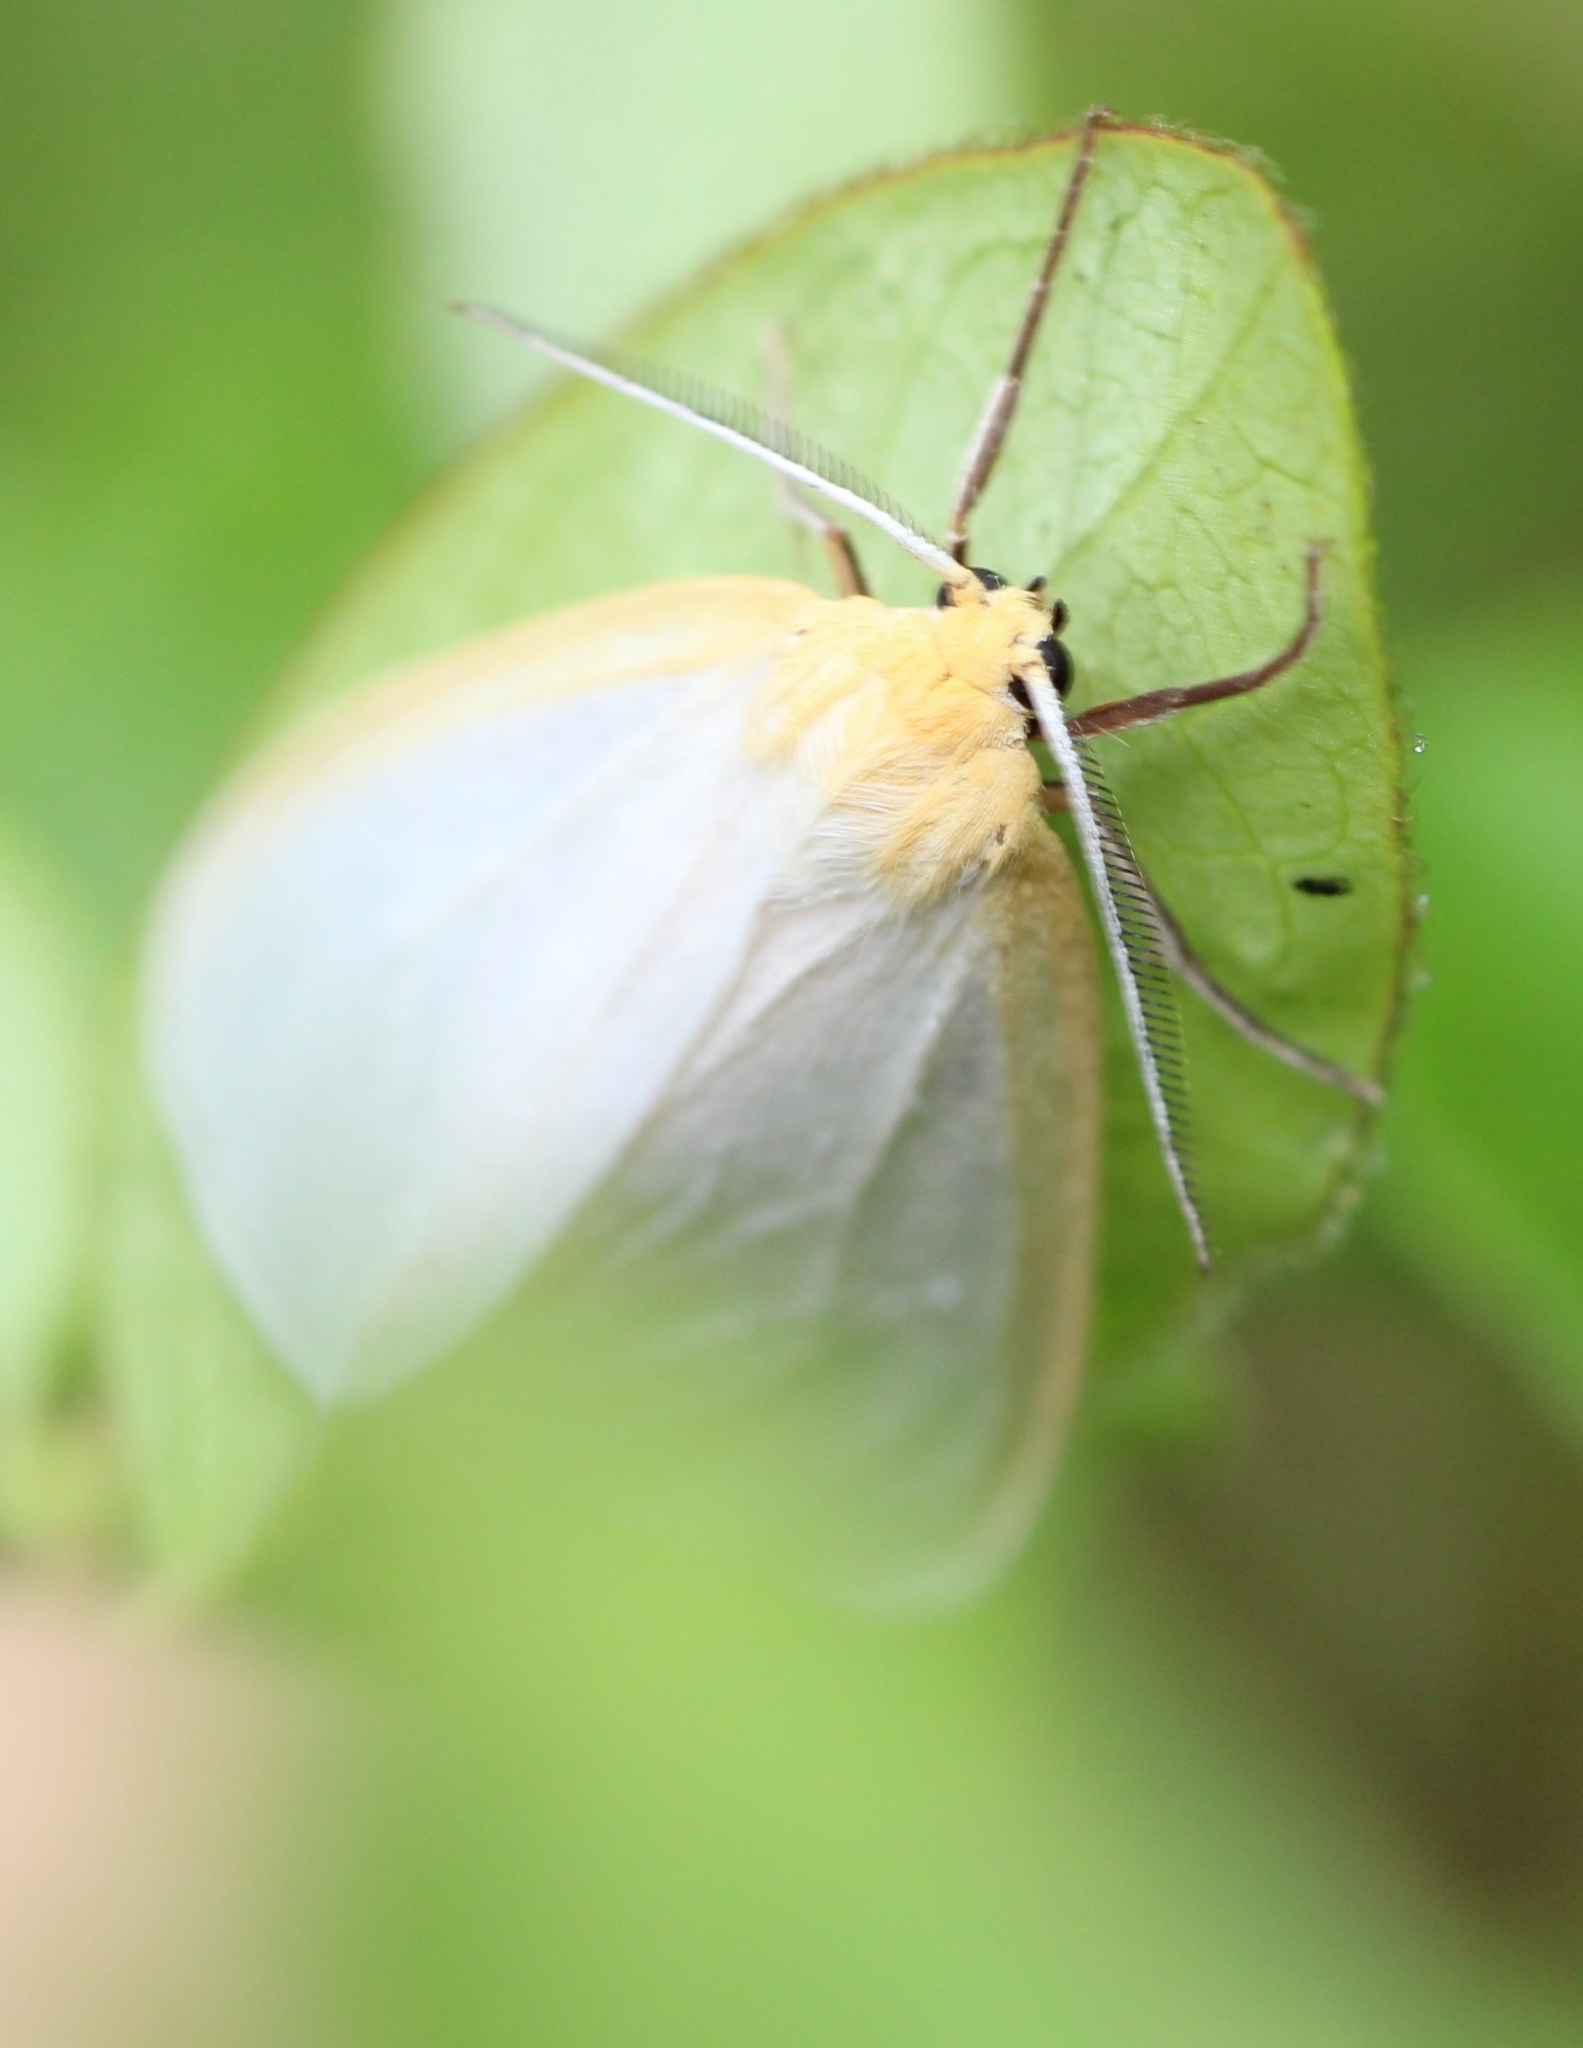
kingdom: Animalia
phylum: Arthropoda
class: Insecta
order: Lepidoptera
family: Erebidae
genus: Cycnia
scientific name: Cycnia tenera
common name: Delicate cycnia moth
